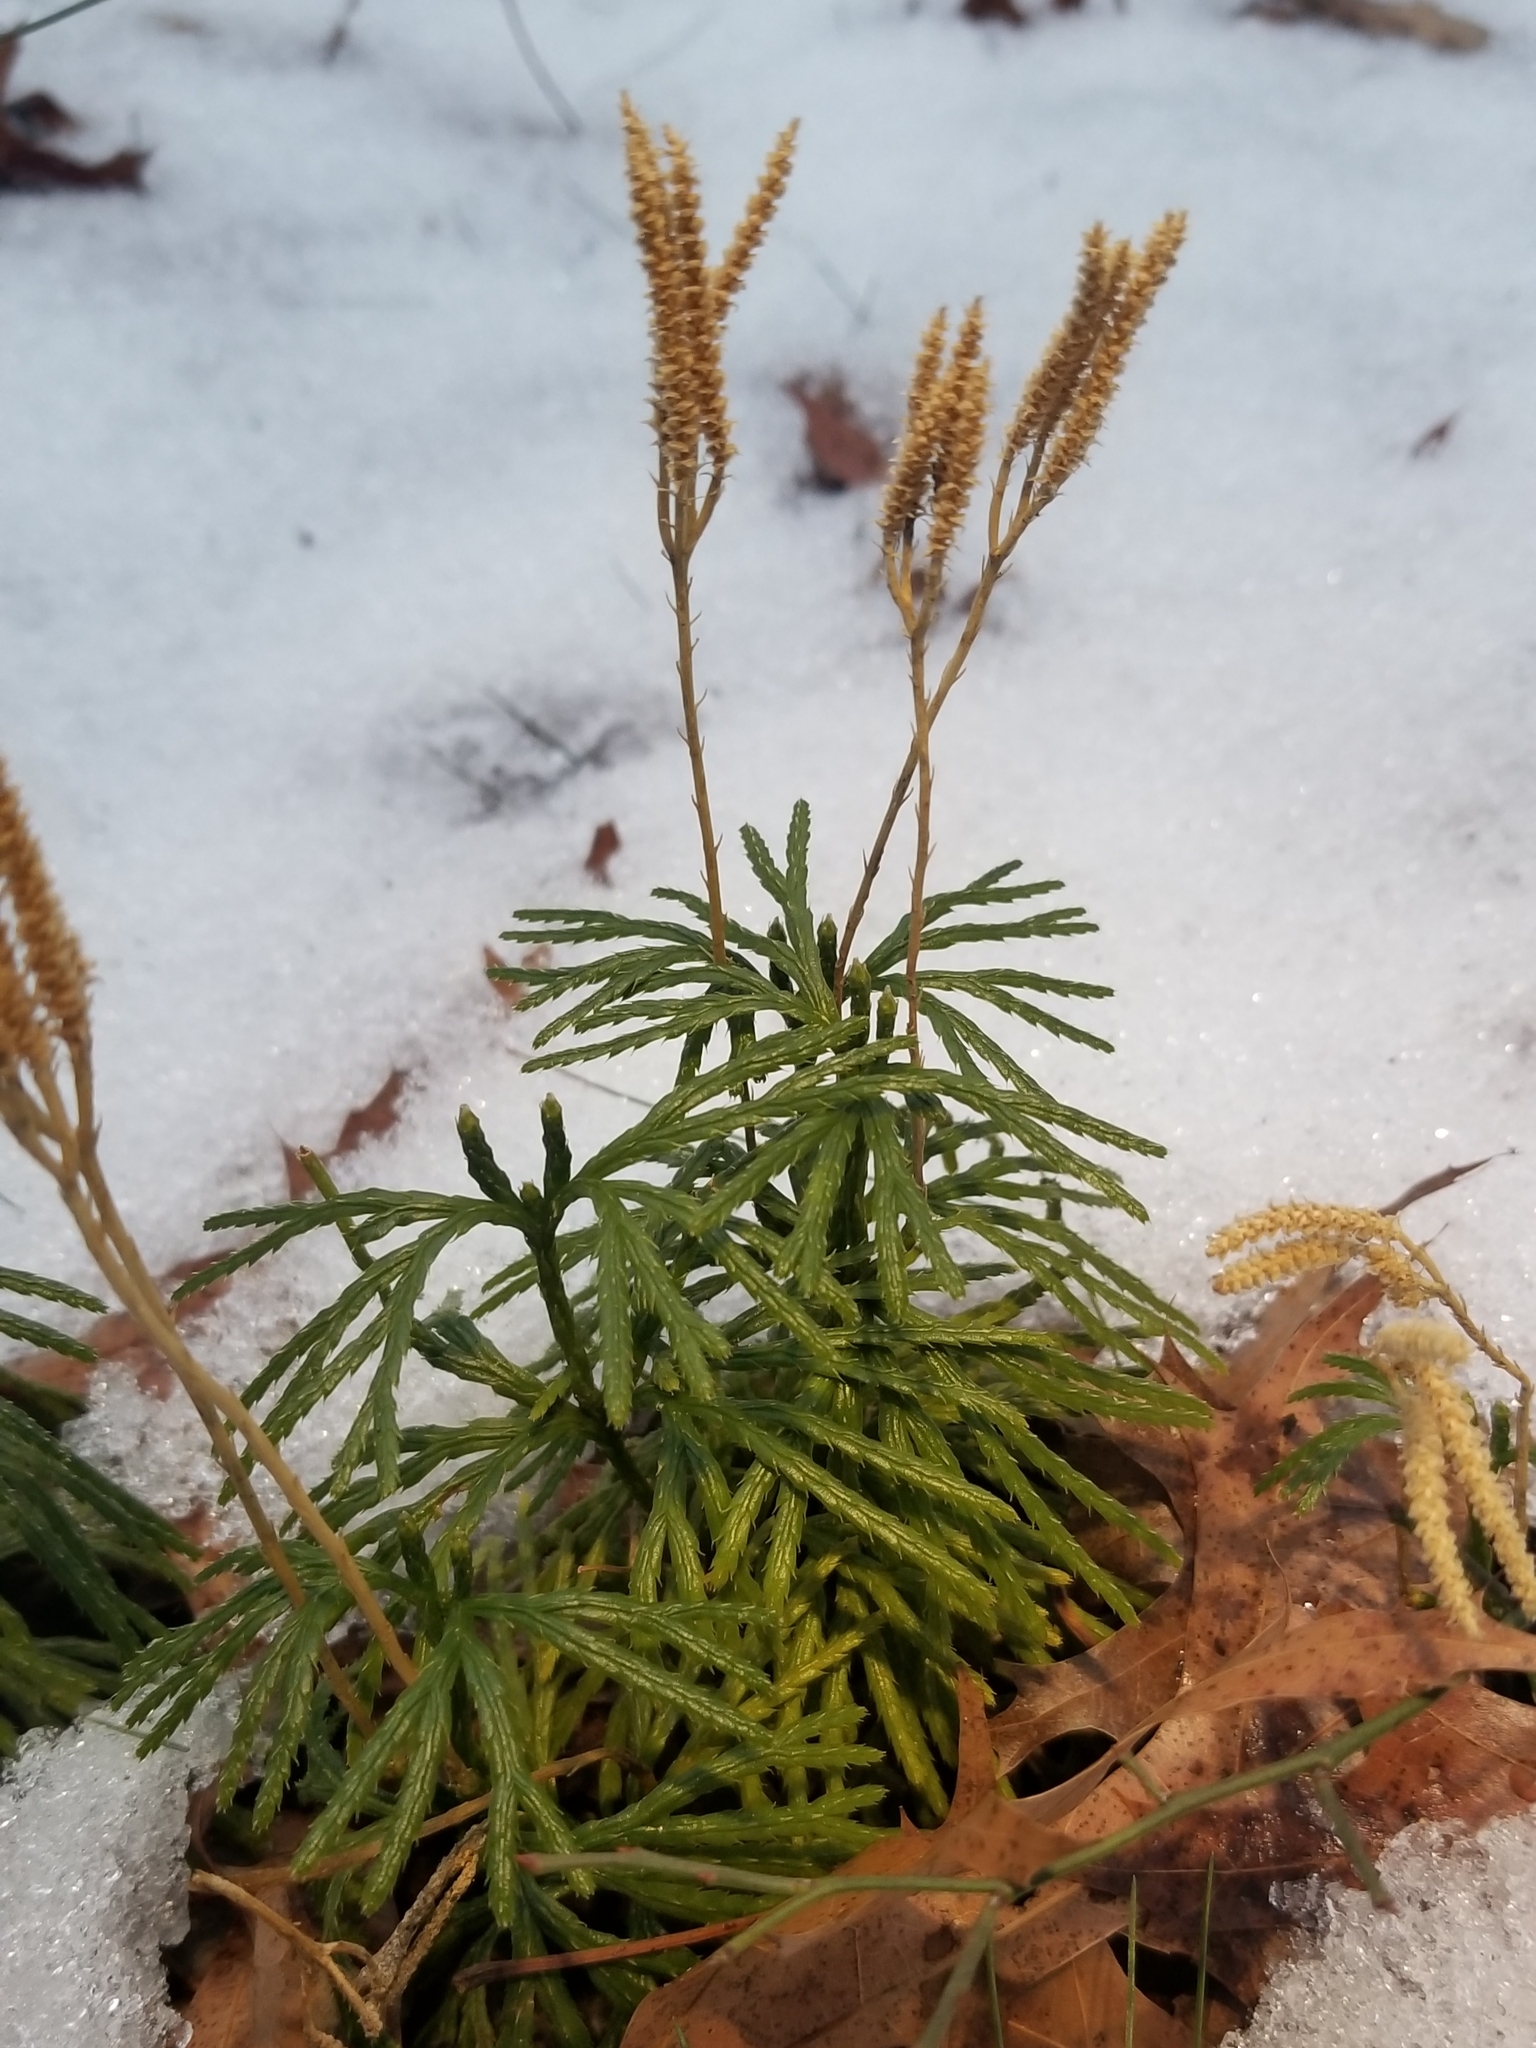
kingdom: Plantae
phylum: Tracheophyta
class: Lycopodiopsida
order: Lycopodiales
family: Lycopodiaceae
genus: Diphasiastrum
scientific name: Diphasiastrum digitatum
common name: Southern running-pine
